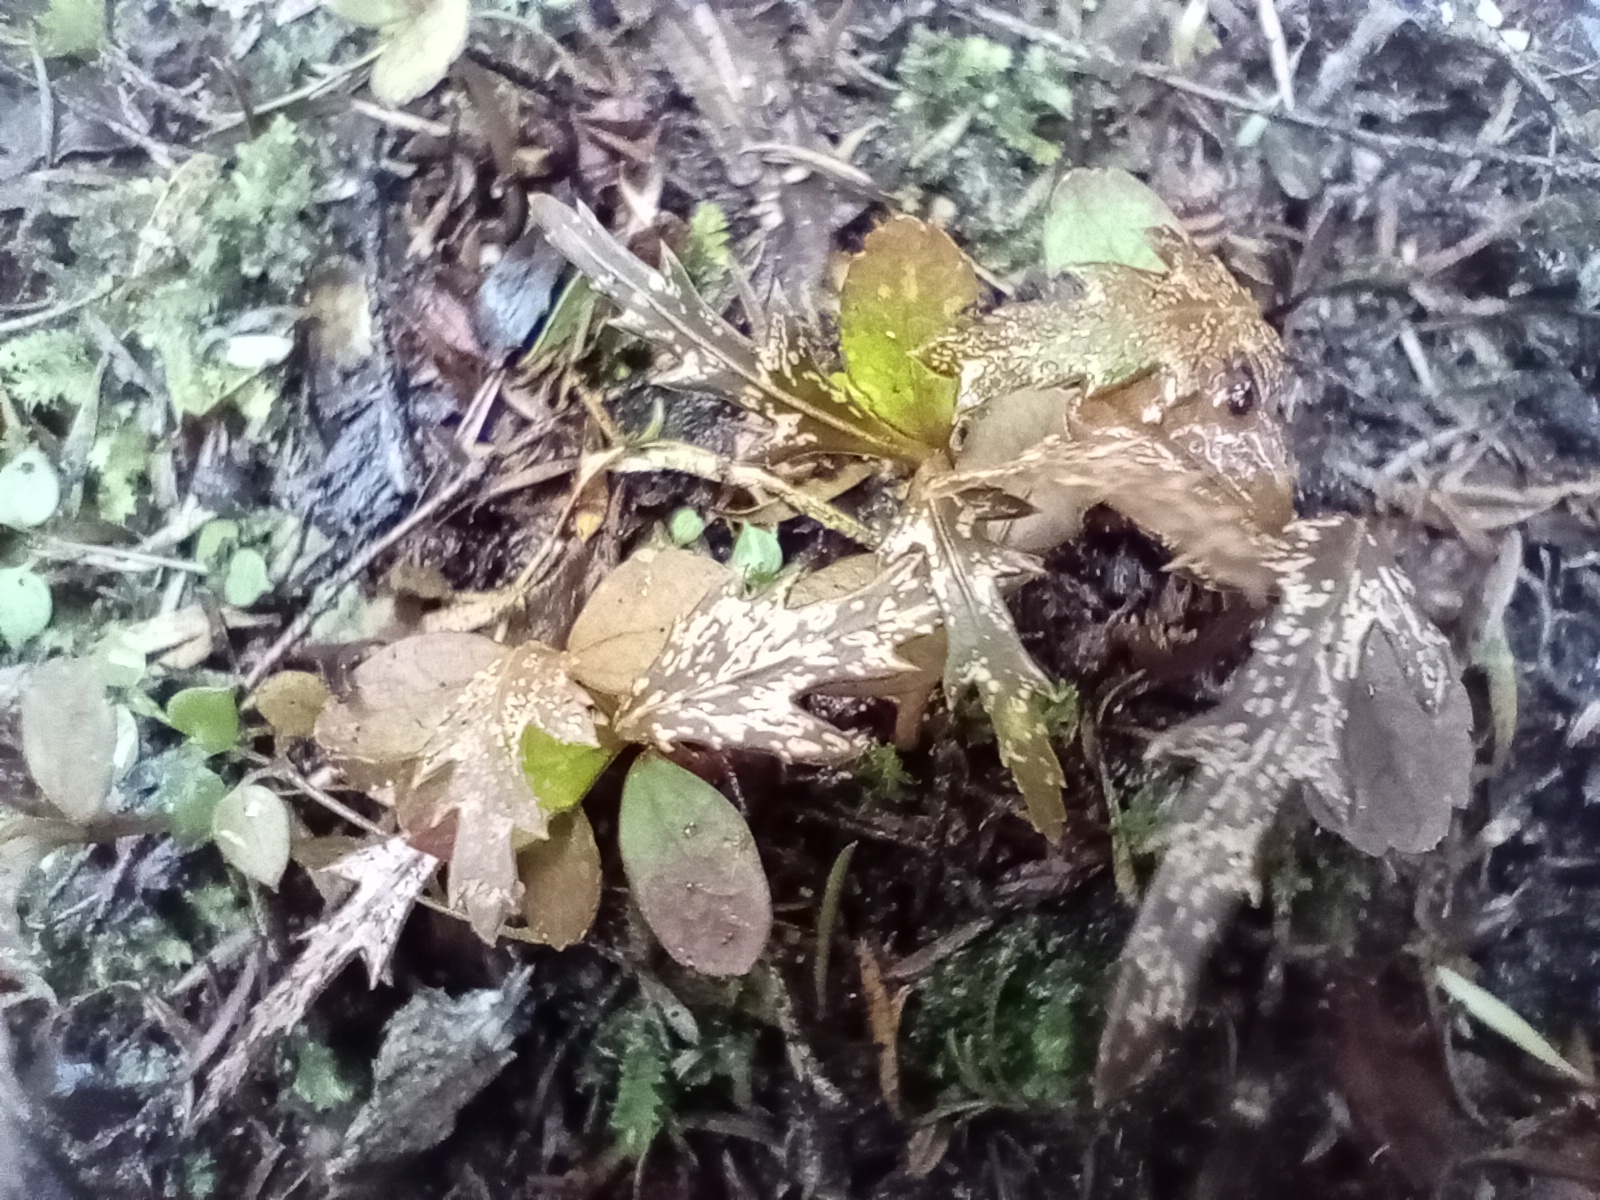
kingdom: Plantae
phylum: Tracheophyta
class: Magnoliopsida
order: Apiales
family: Araliaceae
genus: Pseudopanax
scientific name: Pseudopanax crassifolius
